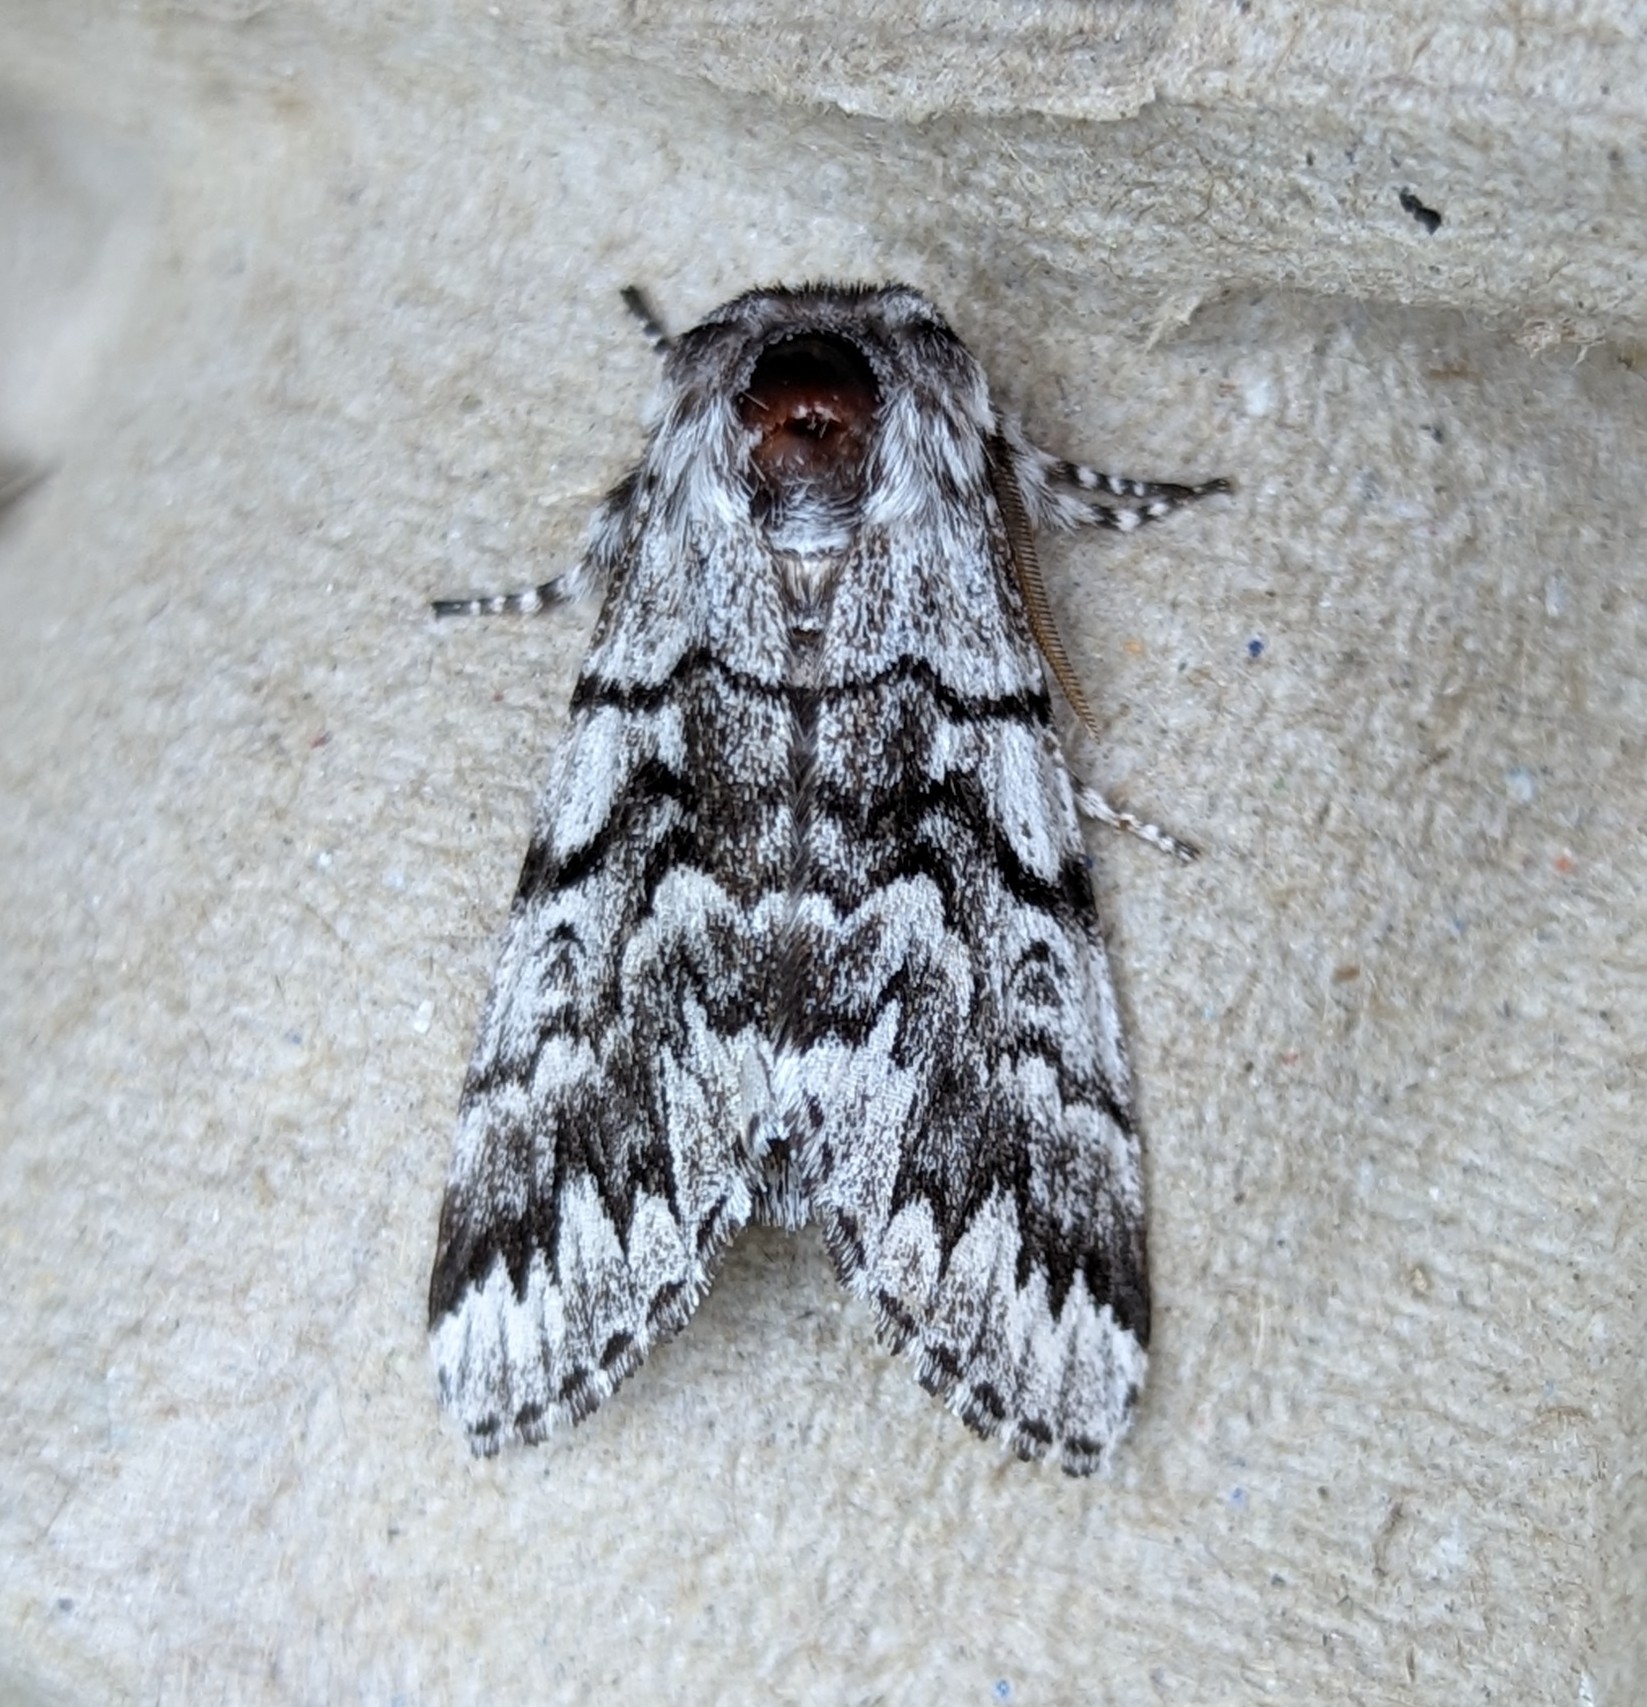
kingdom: Animalia
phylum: Arthropoda
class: Insecta
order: Lepidoptera
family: Noctuidae
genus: Panthea
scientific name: Panthea virginarius
